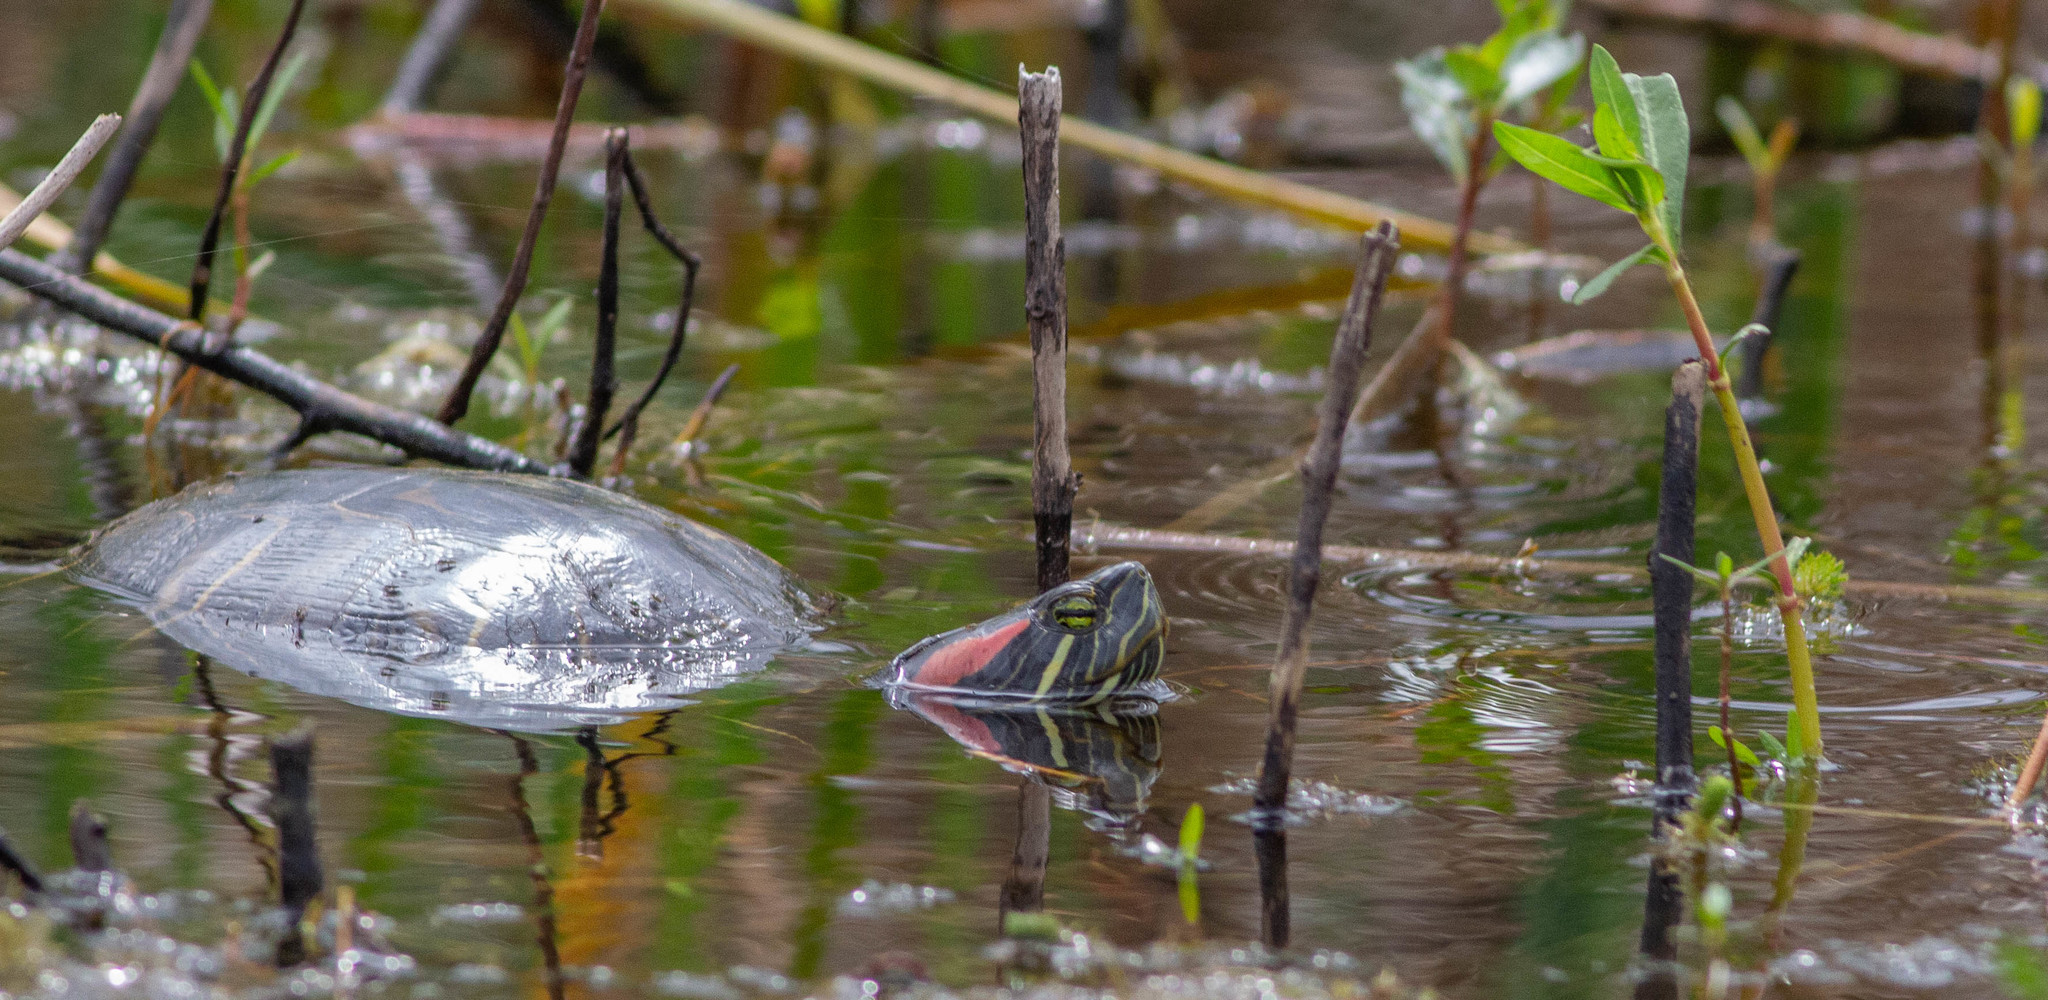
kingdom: Animalia
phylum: Chordata
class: Testudines
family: Emydidae
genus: Trachemys
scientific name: Trachemys scripta
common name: Slider
